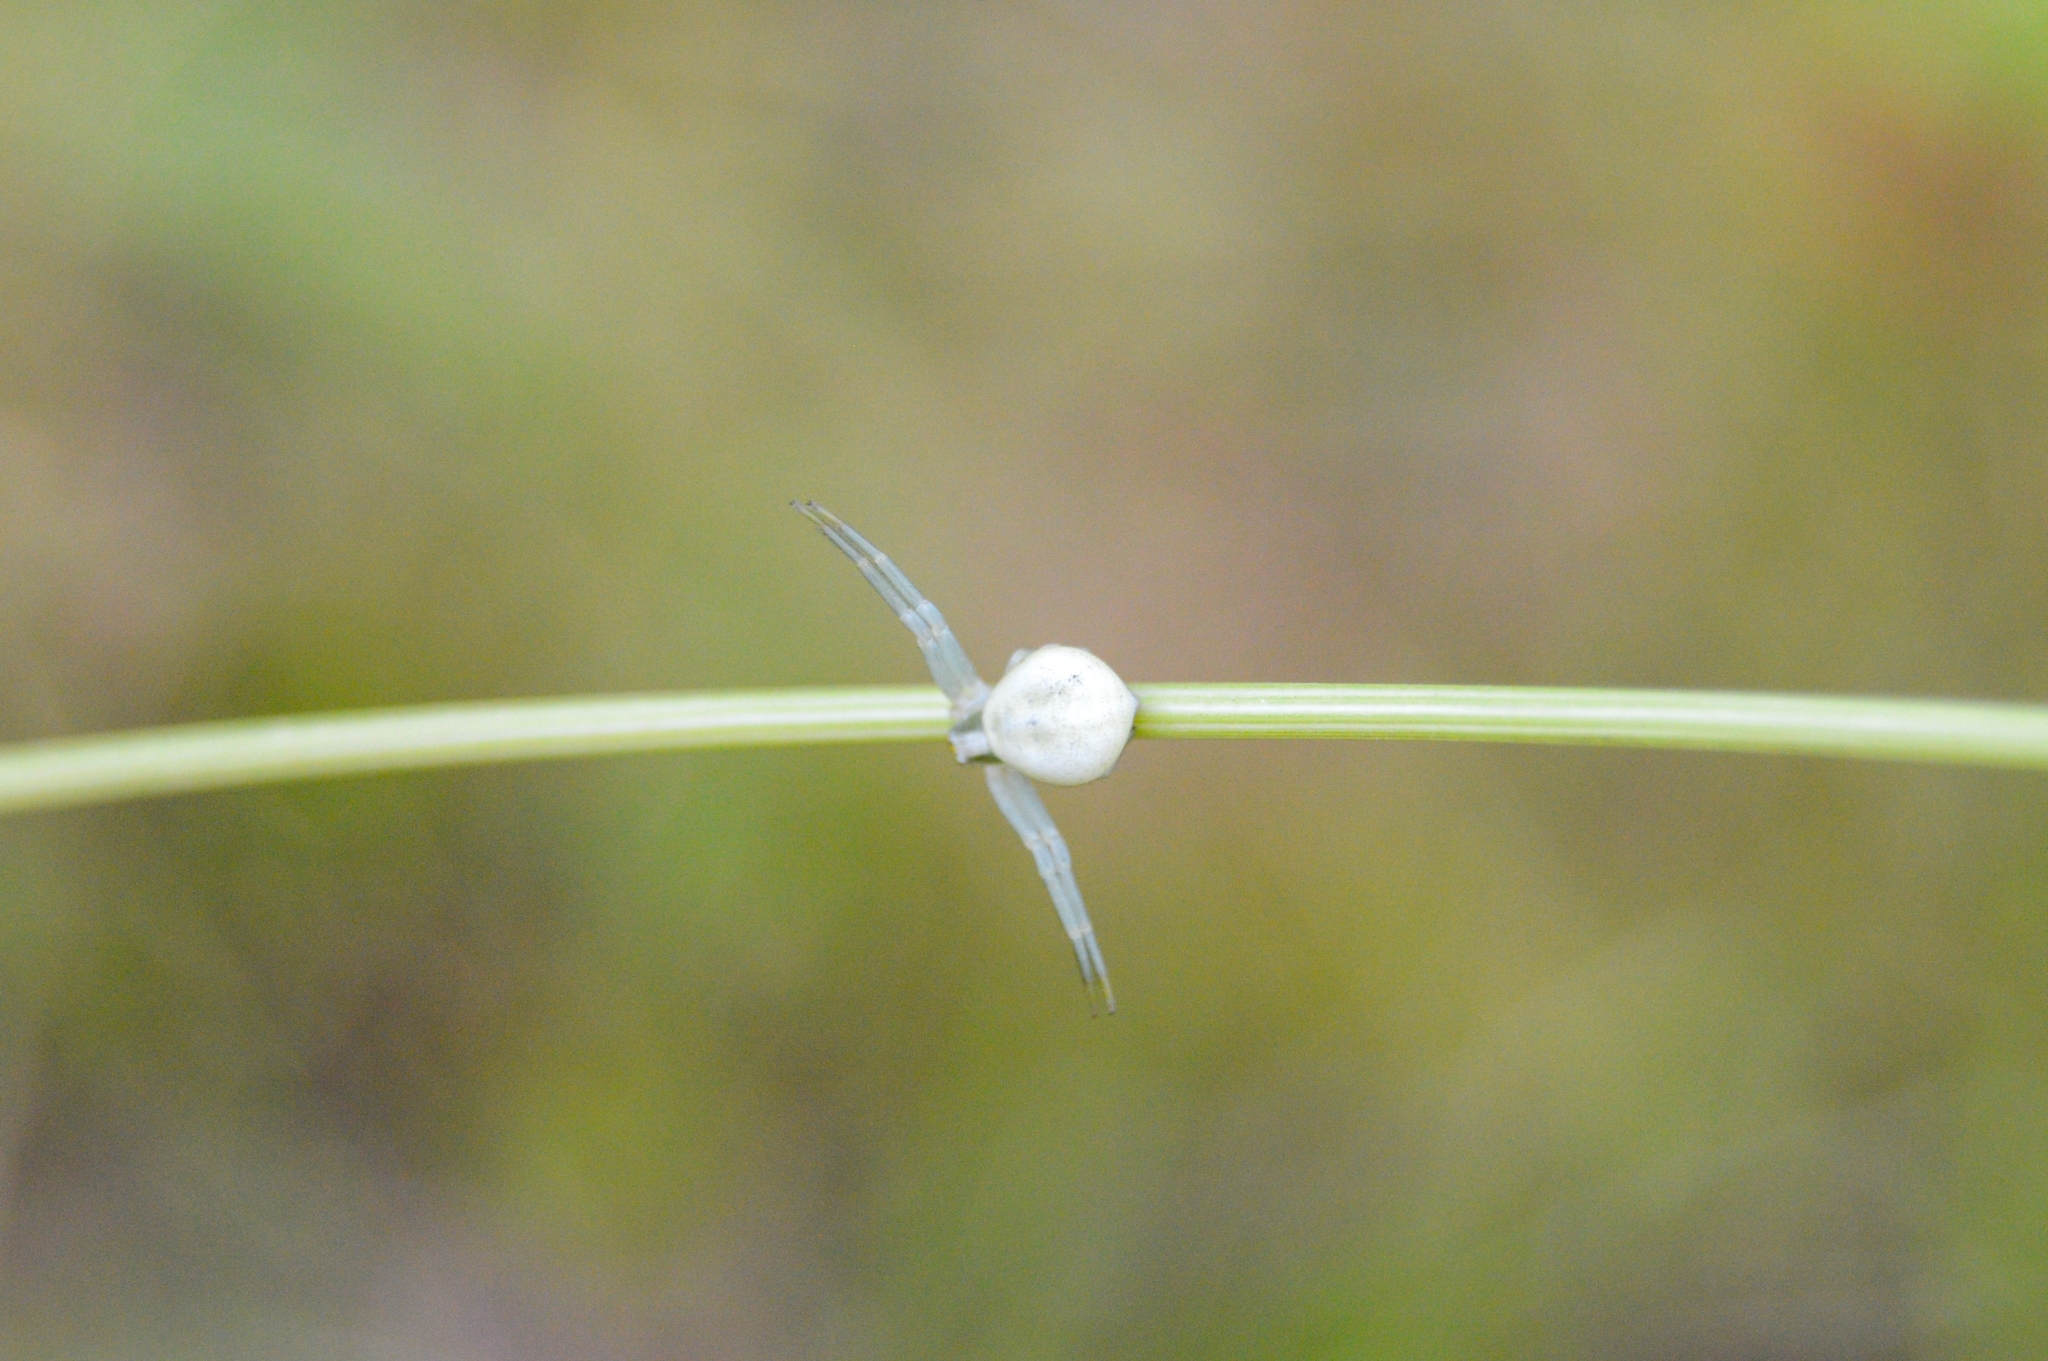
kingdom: Animalia
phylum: Arthropoda
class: Arachnida
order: Araneae
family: Thomisidae
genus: Misumena
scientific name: Misumena vatia
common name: Goldenrod crab spider
